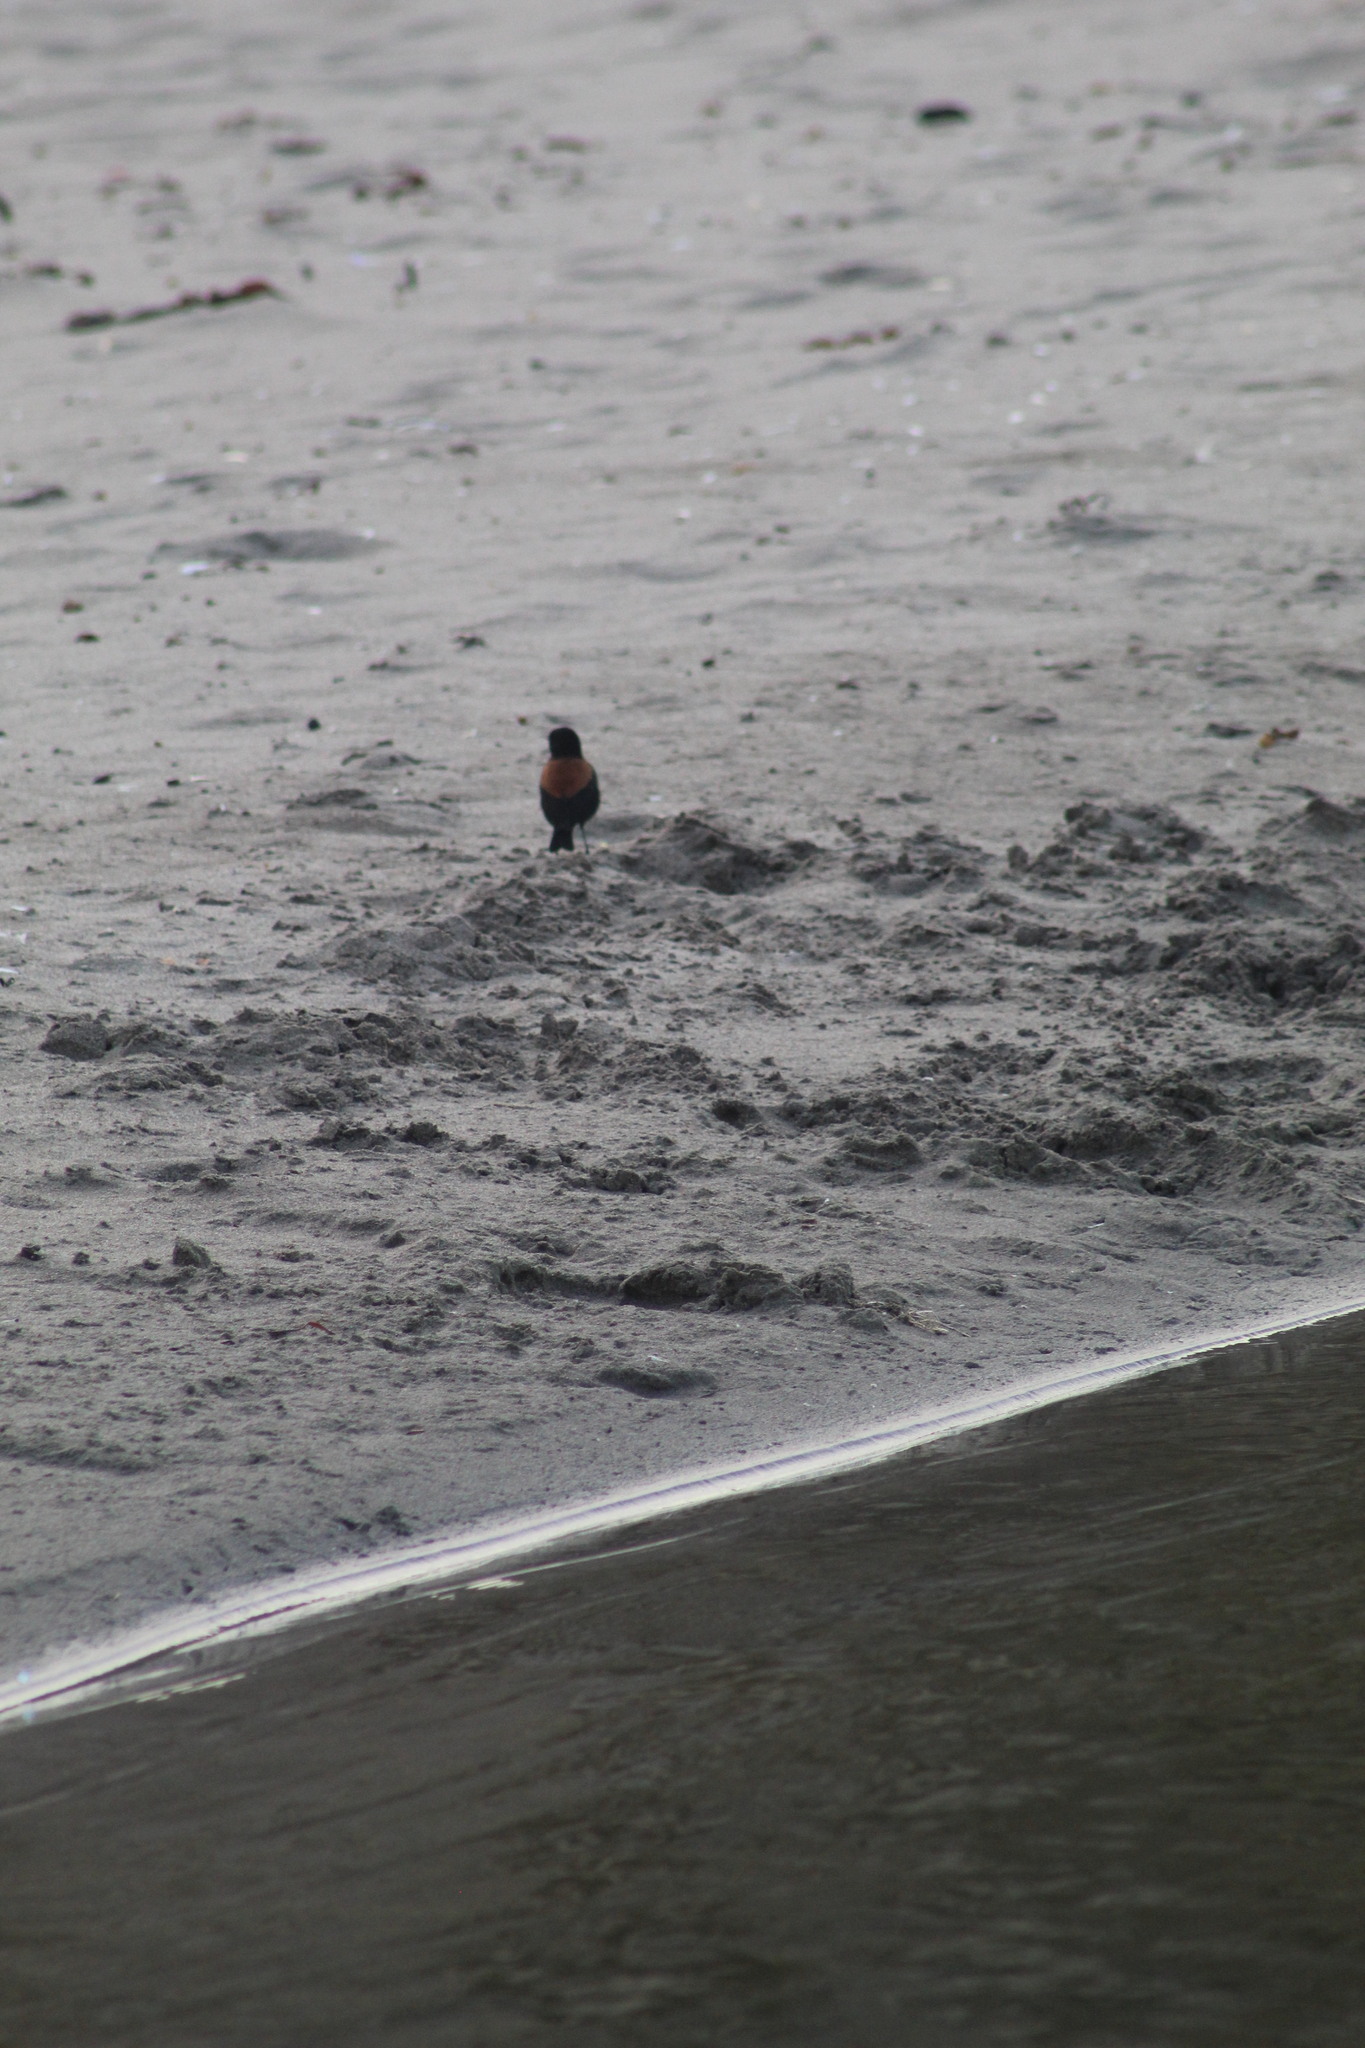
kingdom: Animalia
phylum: Chordata
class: Aves
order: Passeriformes
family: Tyrannidae
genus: Lessonia
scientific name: Lessonia rufa
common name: Austral negrito
